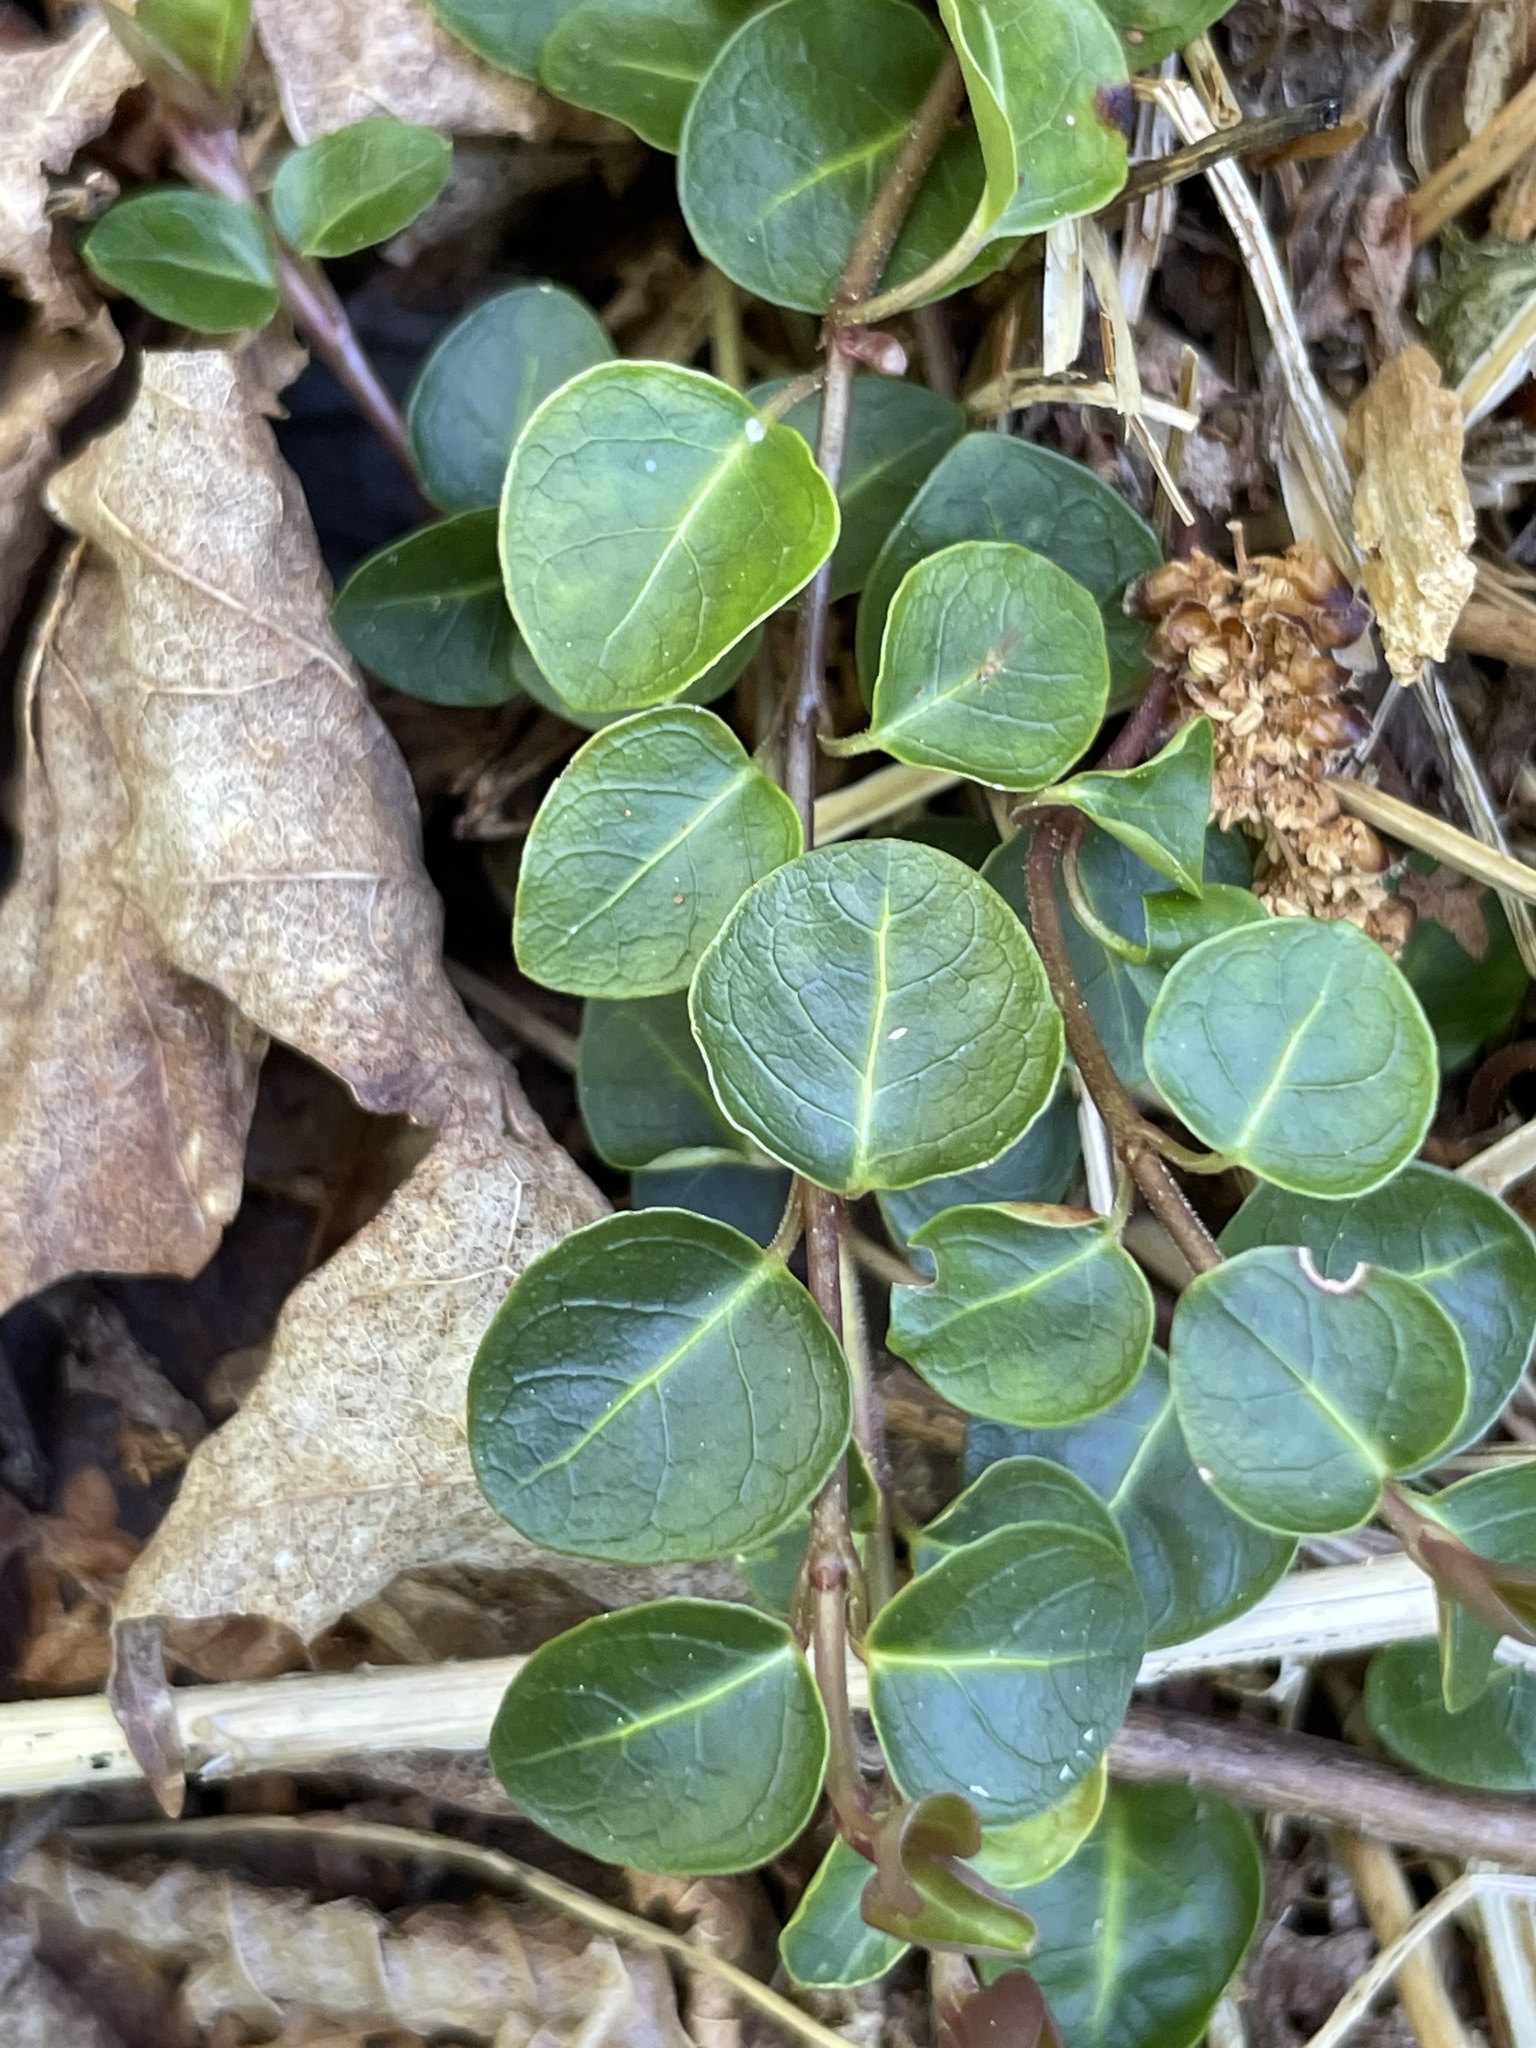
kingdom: Plantae
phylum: Tracheophyta
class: Magnoliopsida
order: Gentianales
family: Rubiaceae
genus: Mitchella
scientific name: Mitchella repens
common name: Partridge-berry
